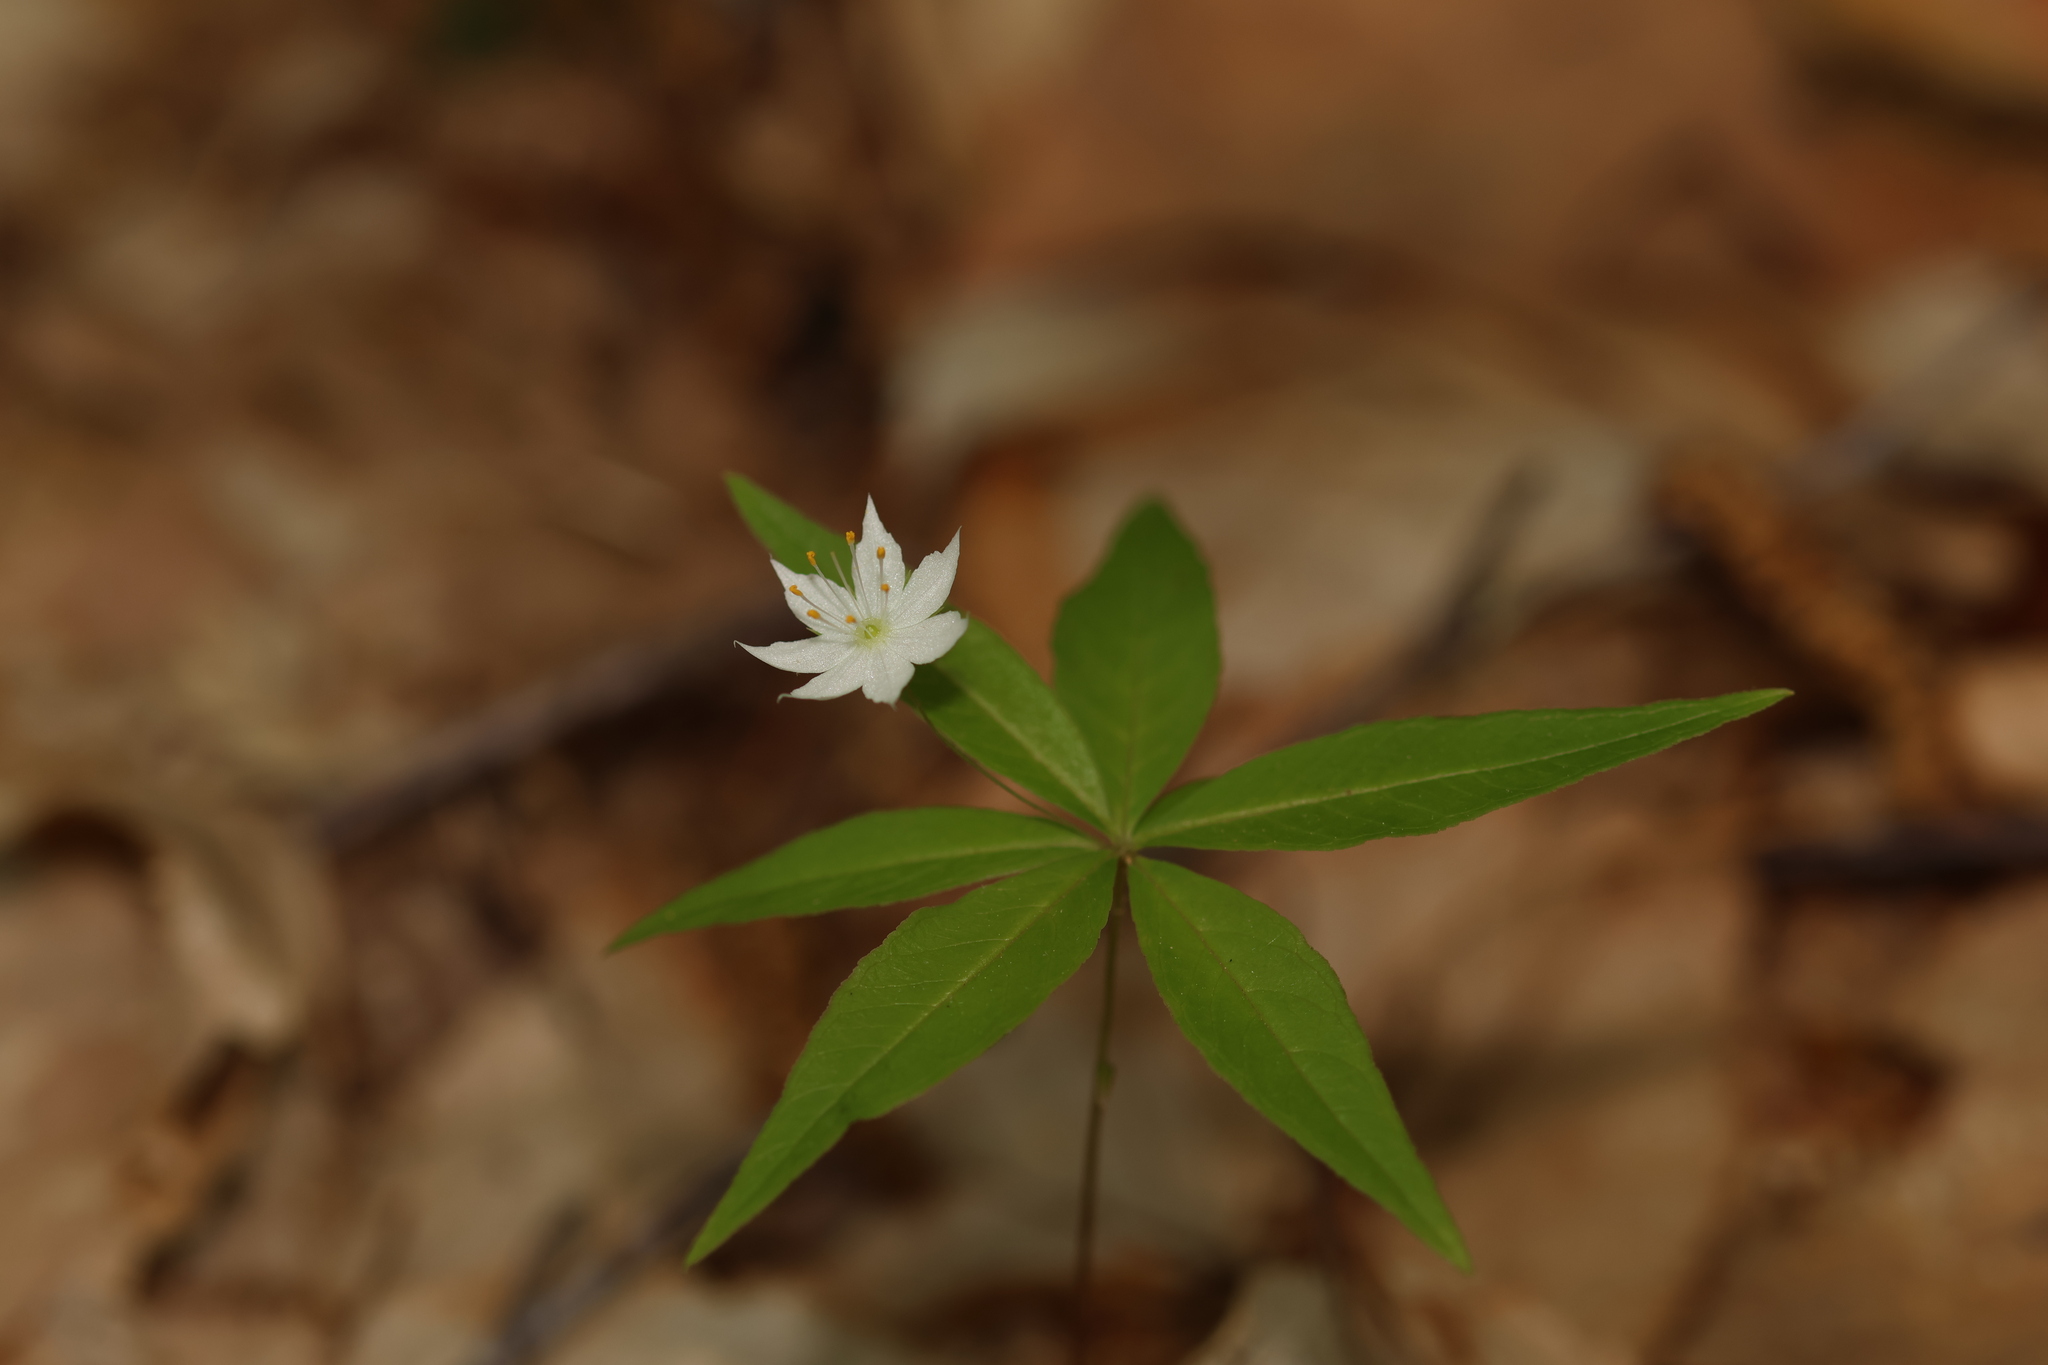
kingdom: Plantae
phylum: Tracheophyta
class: Magnoliopsida
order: Ericales
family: Primulaceae
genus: Lysimachia
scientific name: Lysimachia borealis
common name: American starflower
